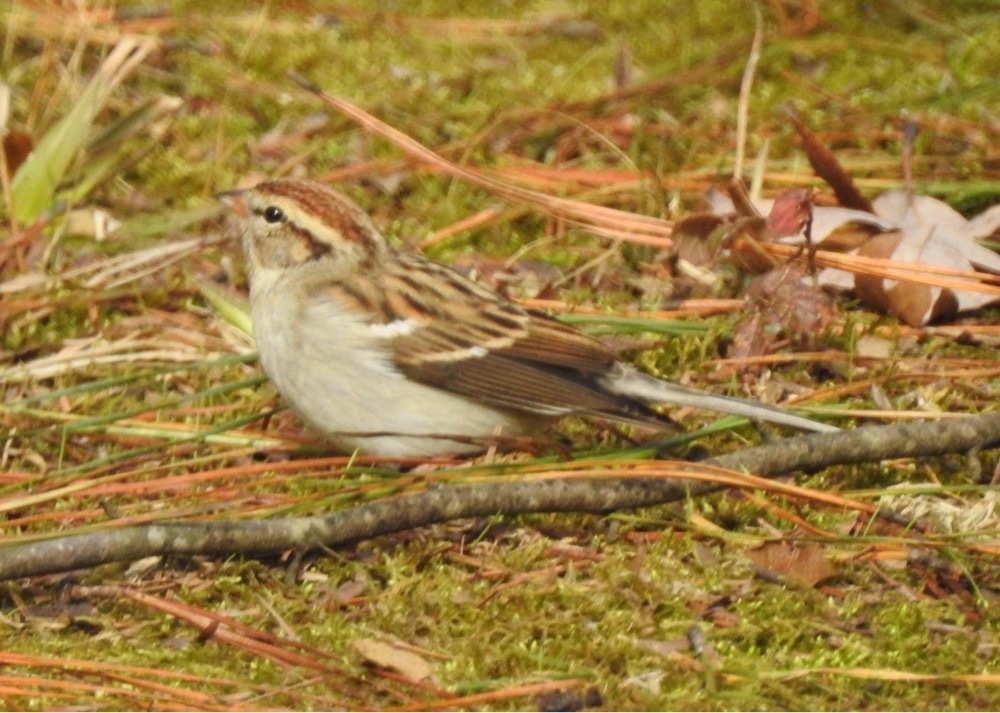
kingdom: Animalia
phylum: Chordata
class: Aves
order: Passeriformes
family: Passerellidae
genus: Spizella
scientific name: Spizella passerina
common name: Chipping sparrow
